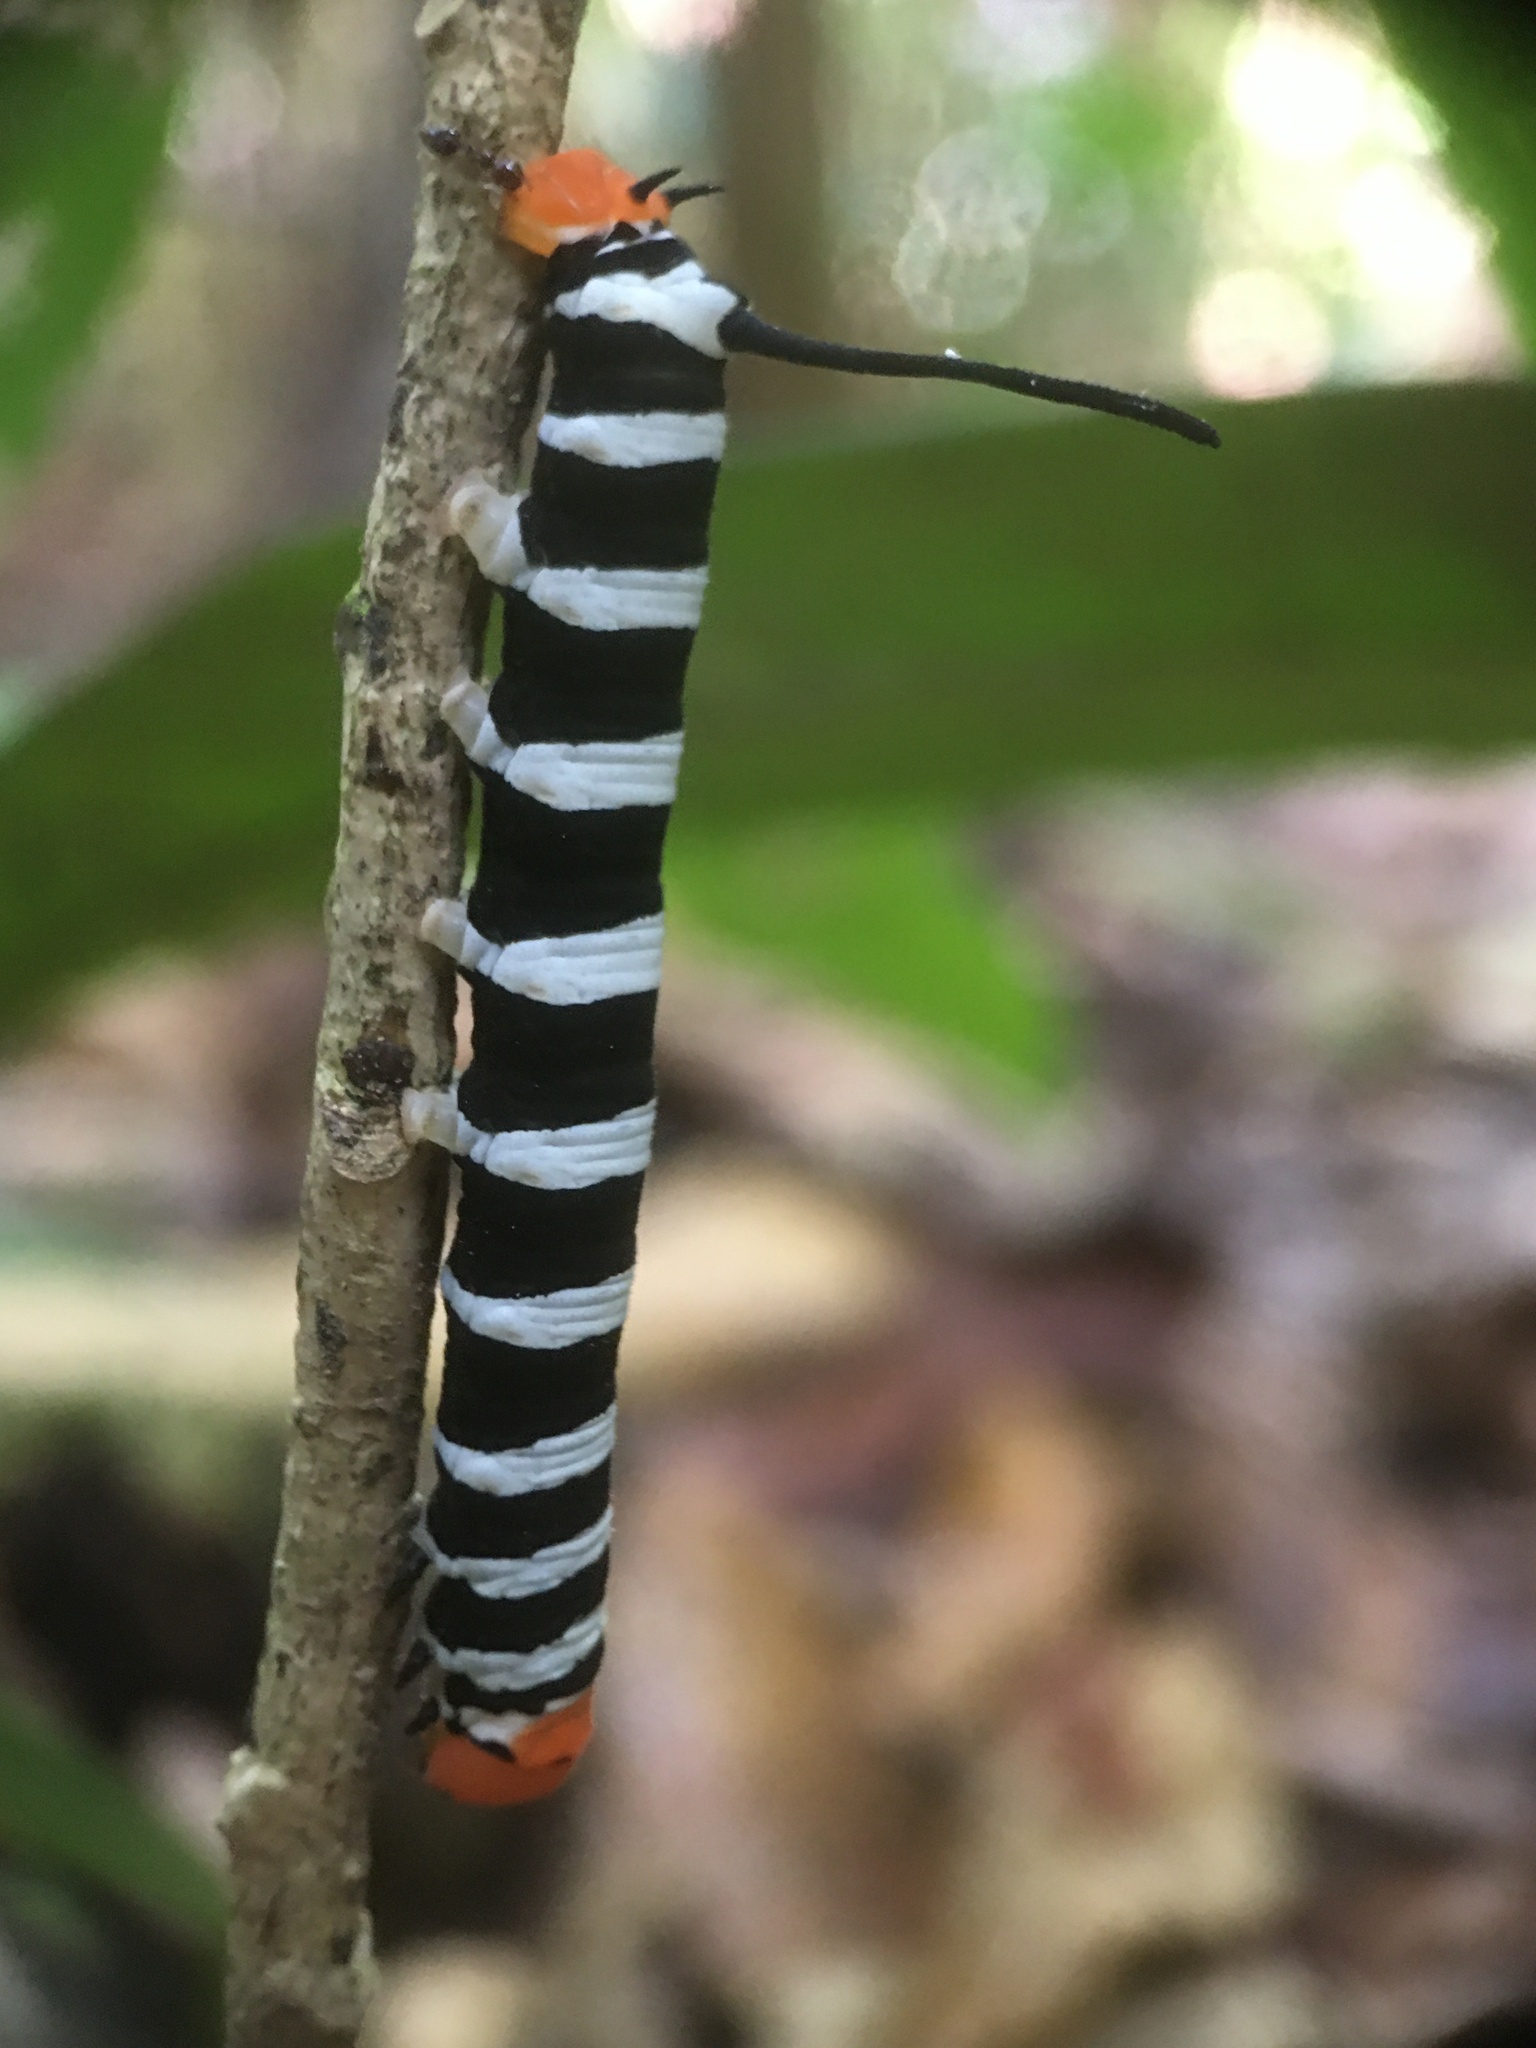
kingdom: Animalia
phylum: Arthropoda
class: Insecta
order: Lepidoptera
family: Sphingidae
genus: Isognathus
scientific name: Isognathus swainsoni
